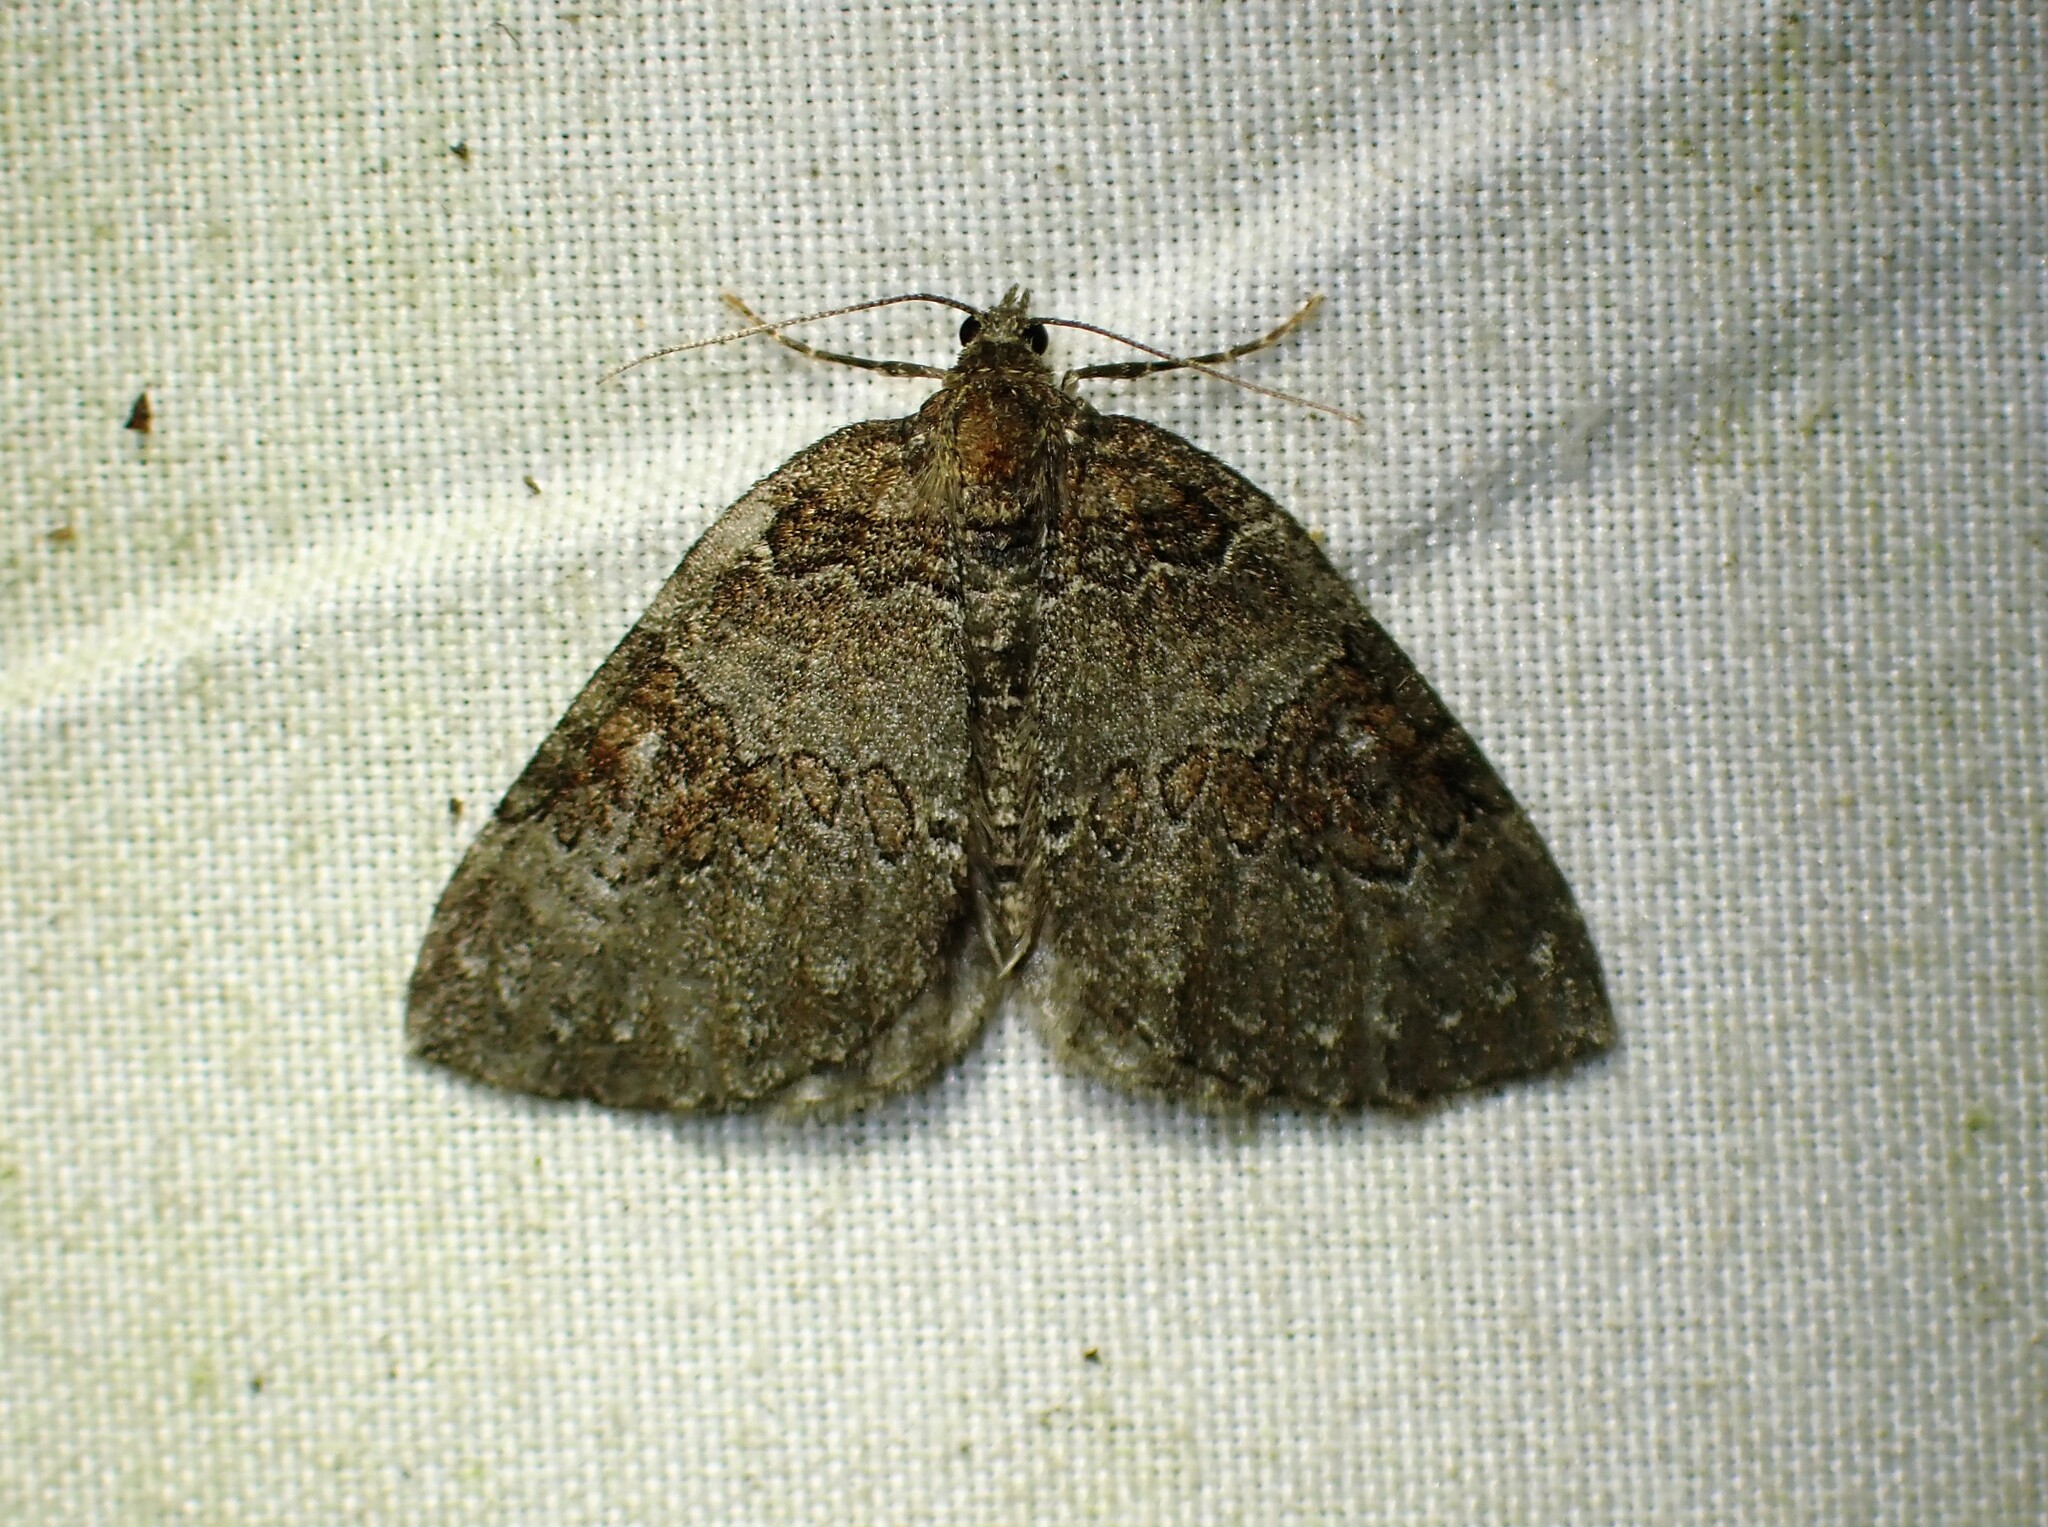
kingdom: Animalia
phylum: Arthropoda
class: Insecta
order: Lepidoptera
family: Geometridae
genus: Plemyria
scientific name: Plemyria georgii
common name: George's carpet moth
